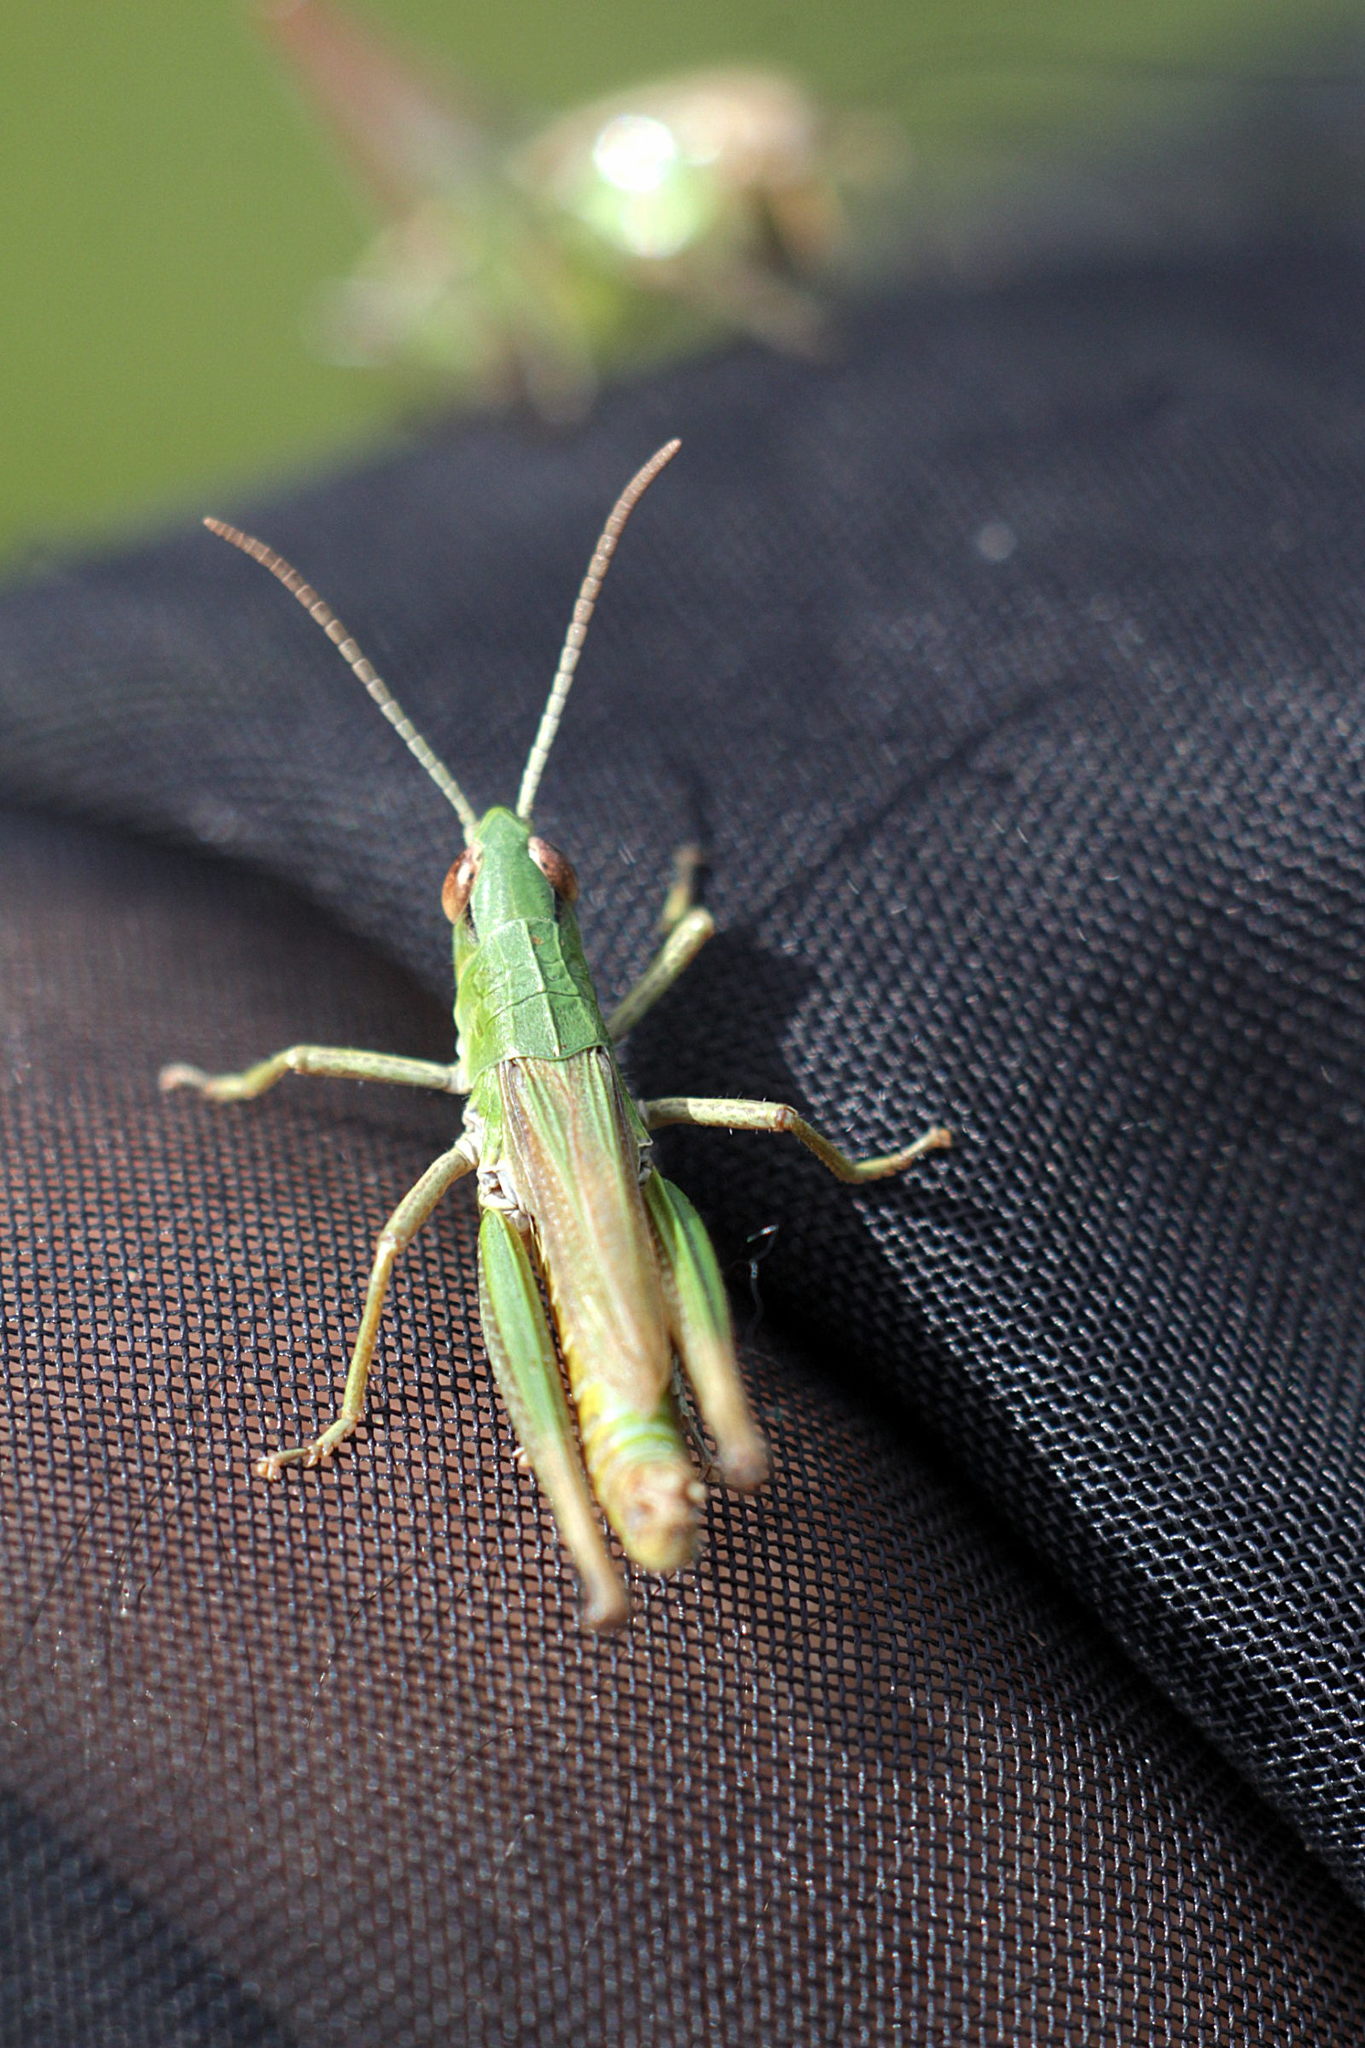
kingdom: Animalia
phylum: Arthropoda
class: Insecta
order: Orthoptera
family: Acrididae
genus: Pseudochorthippus
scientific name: Pseudochorthippus parallelus
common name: Meadow grasshopper
